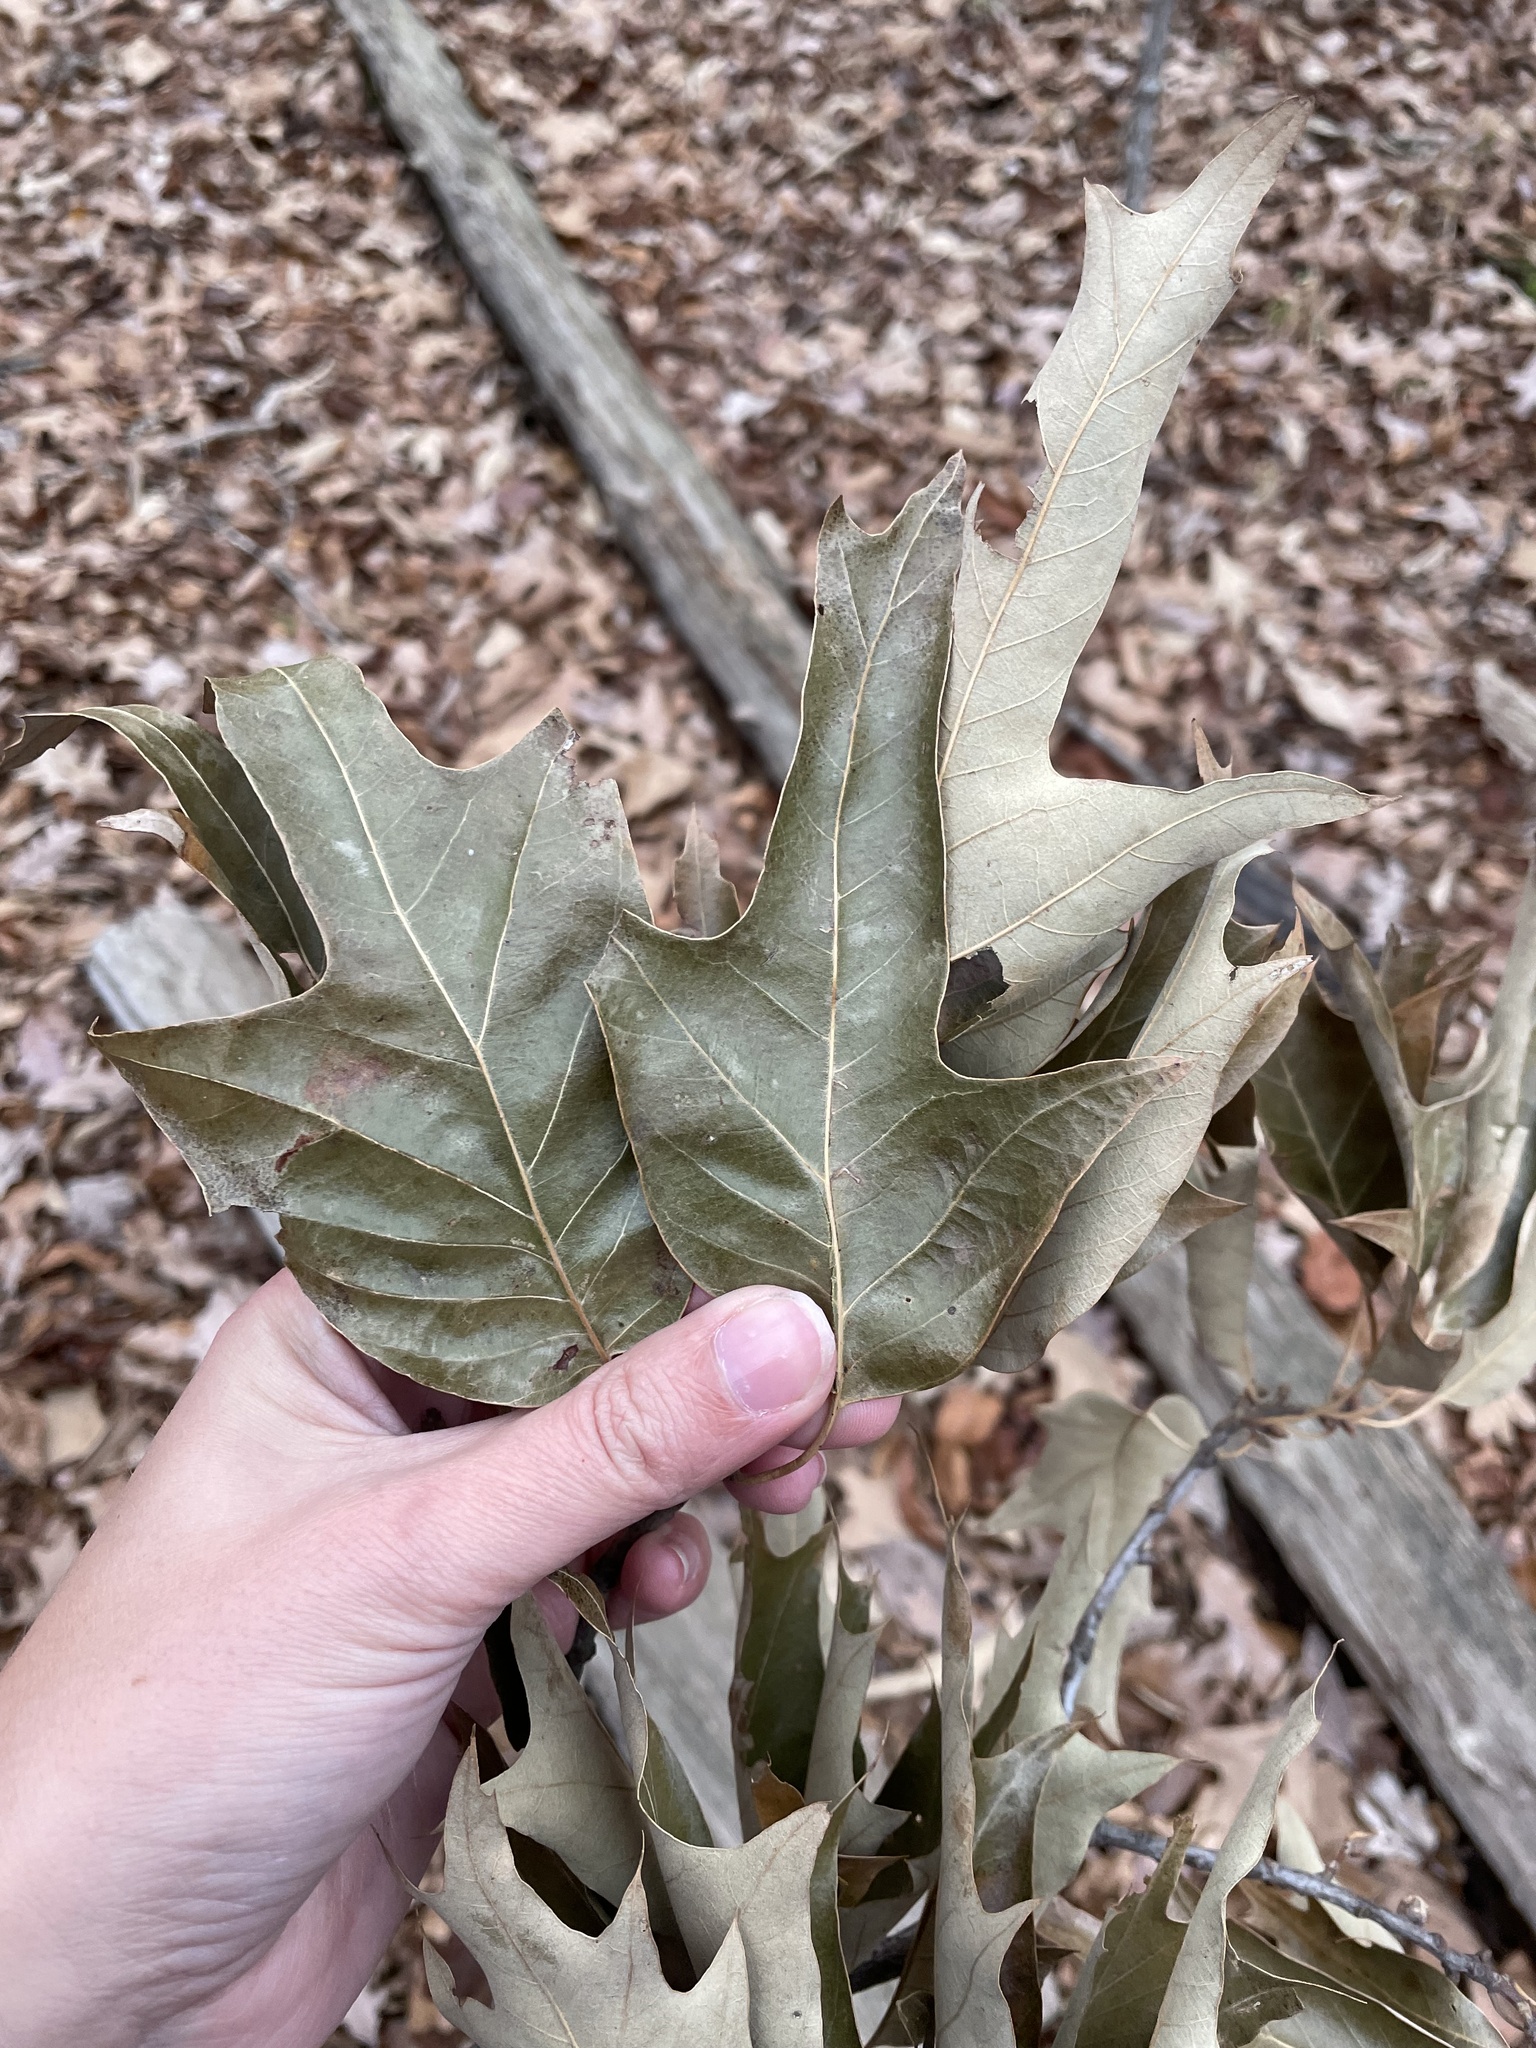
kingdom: Plantae
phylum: Tracheophyta
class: Magnoliopsida
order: Fagales
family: Fagaceae
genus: Quercus
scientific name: Quercus falcata
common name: Southern red oak
